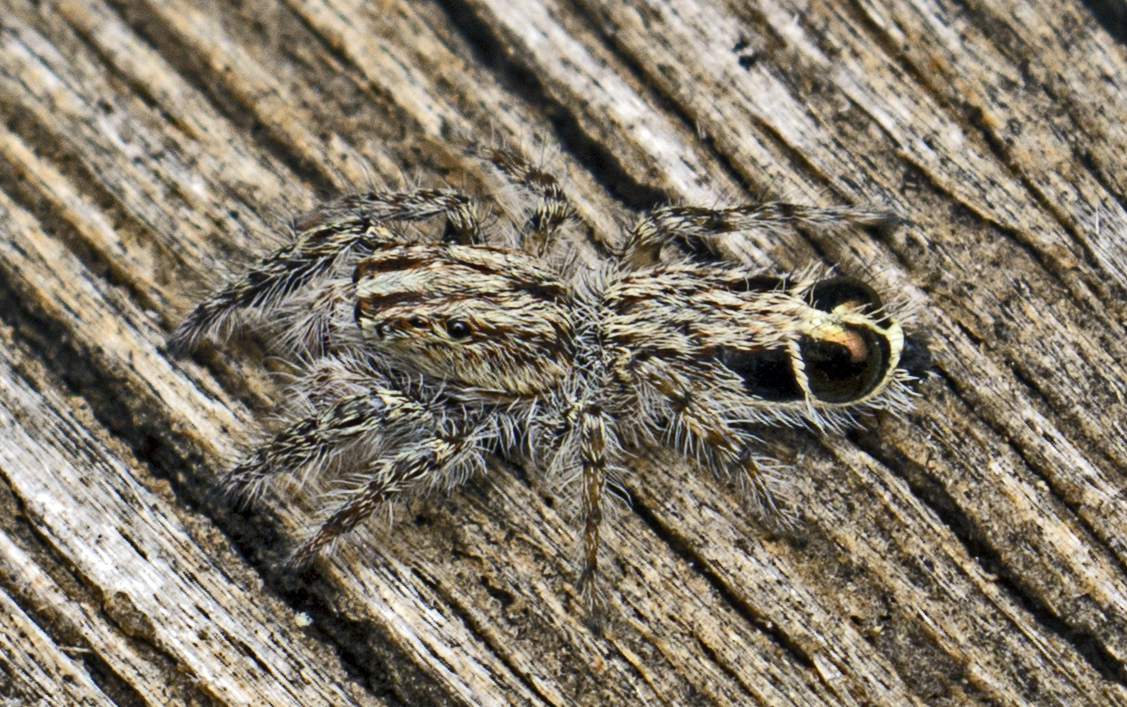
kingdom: Animalia
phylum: Arthropoda
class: Arachnida
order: Araneae
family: Salticidae
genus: Abracadabrella
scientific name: Abracadabrella elegans
